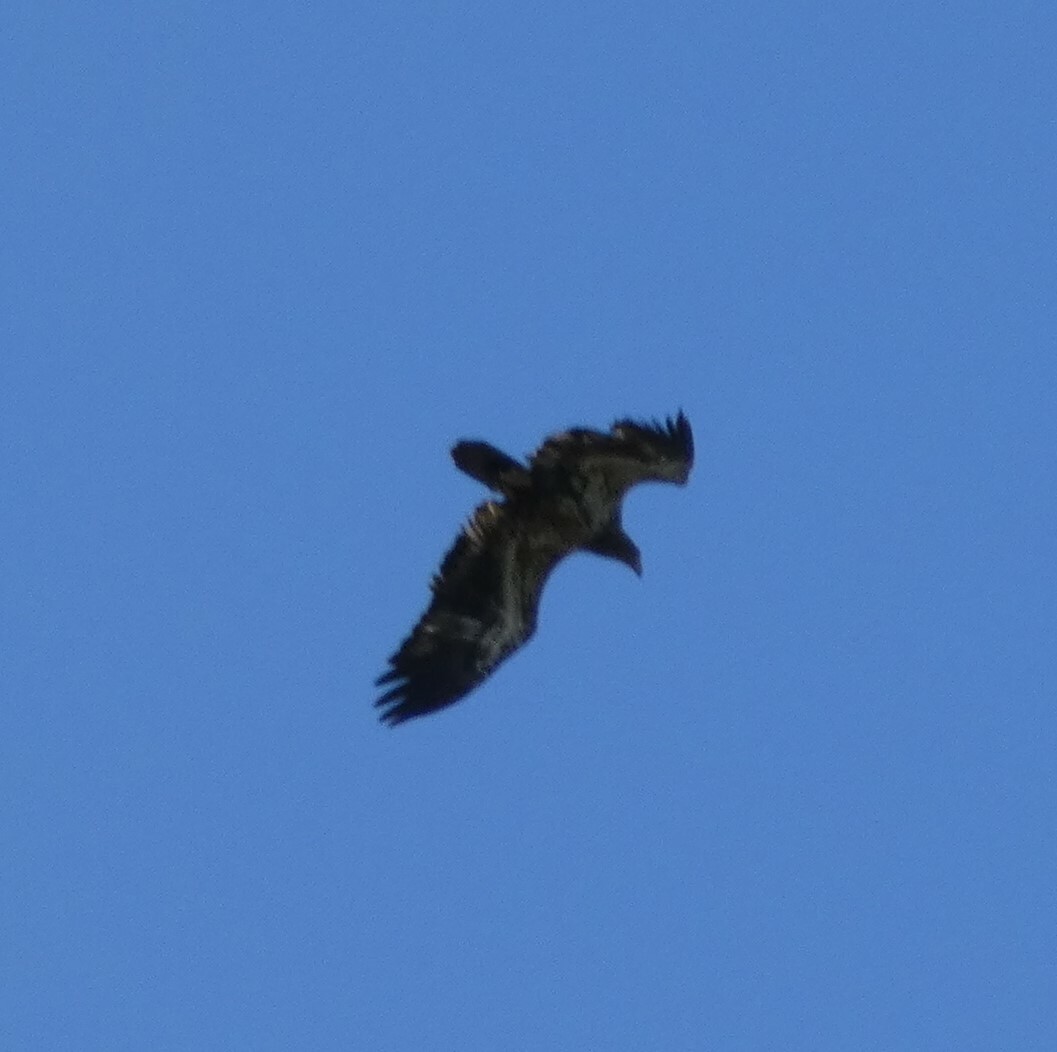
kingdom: Animalia
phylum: Chordata
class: Aves
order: Accipitriformes
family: Accipitridae
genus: Haliaeetus
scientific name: Haliaeetus leucocephalus
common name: Bald eagle
